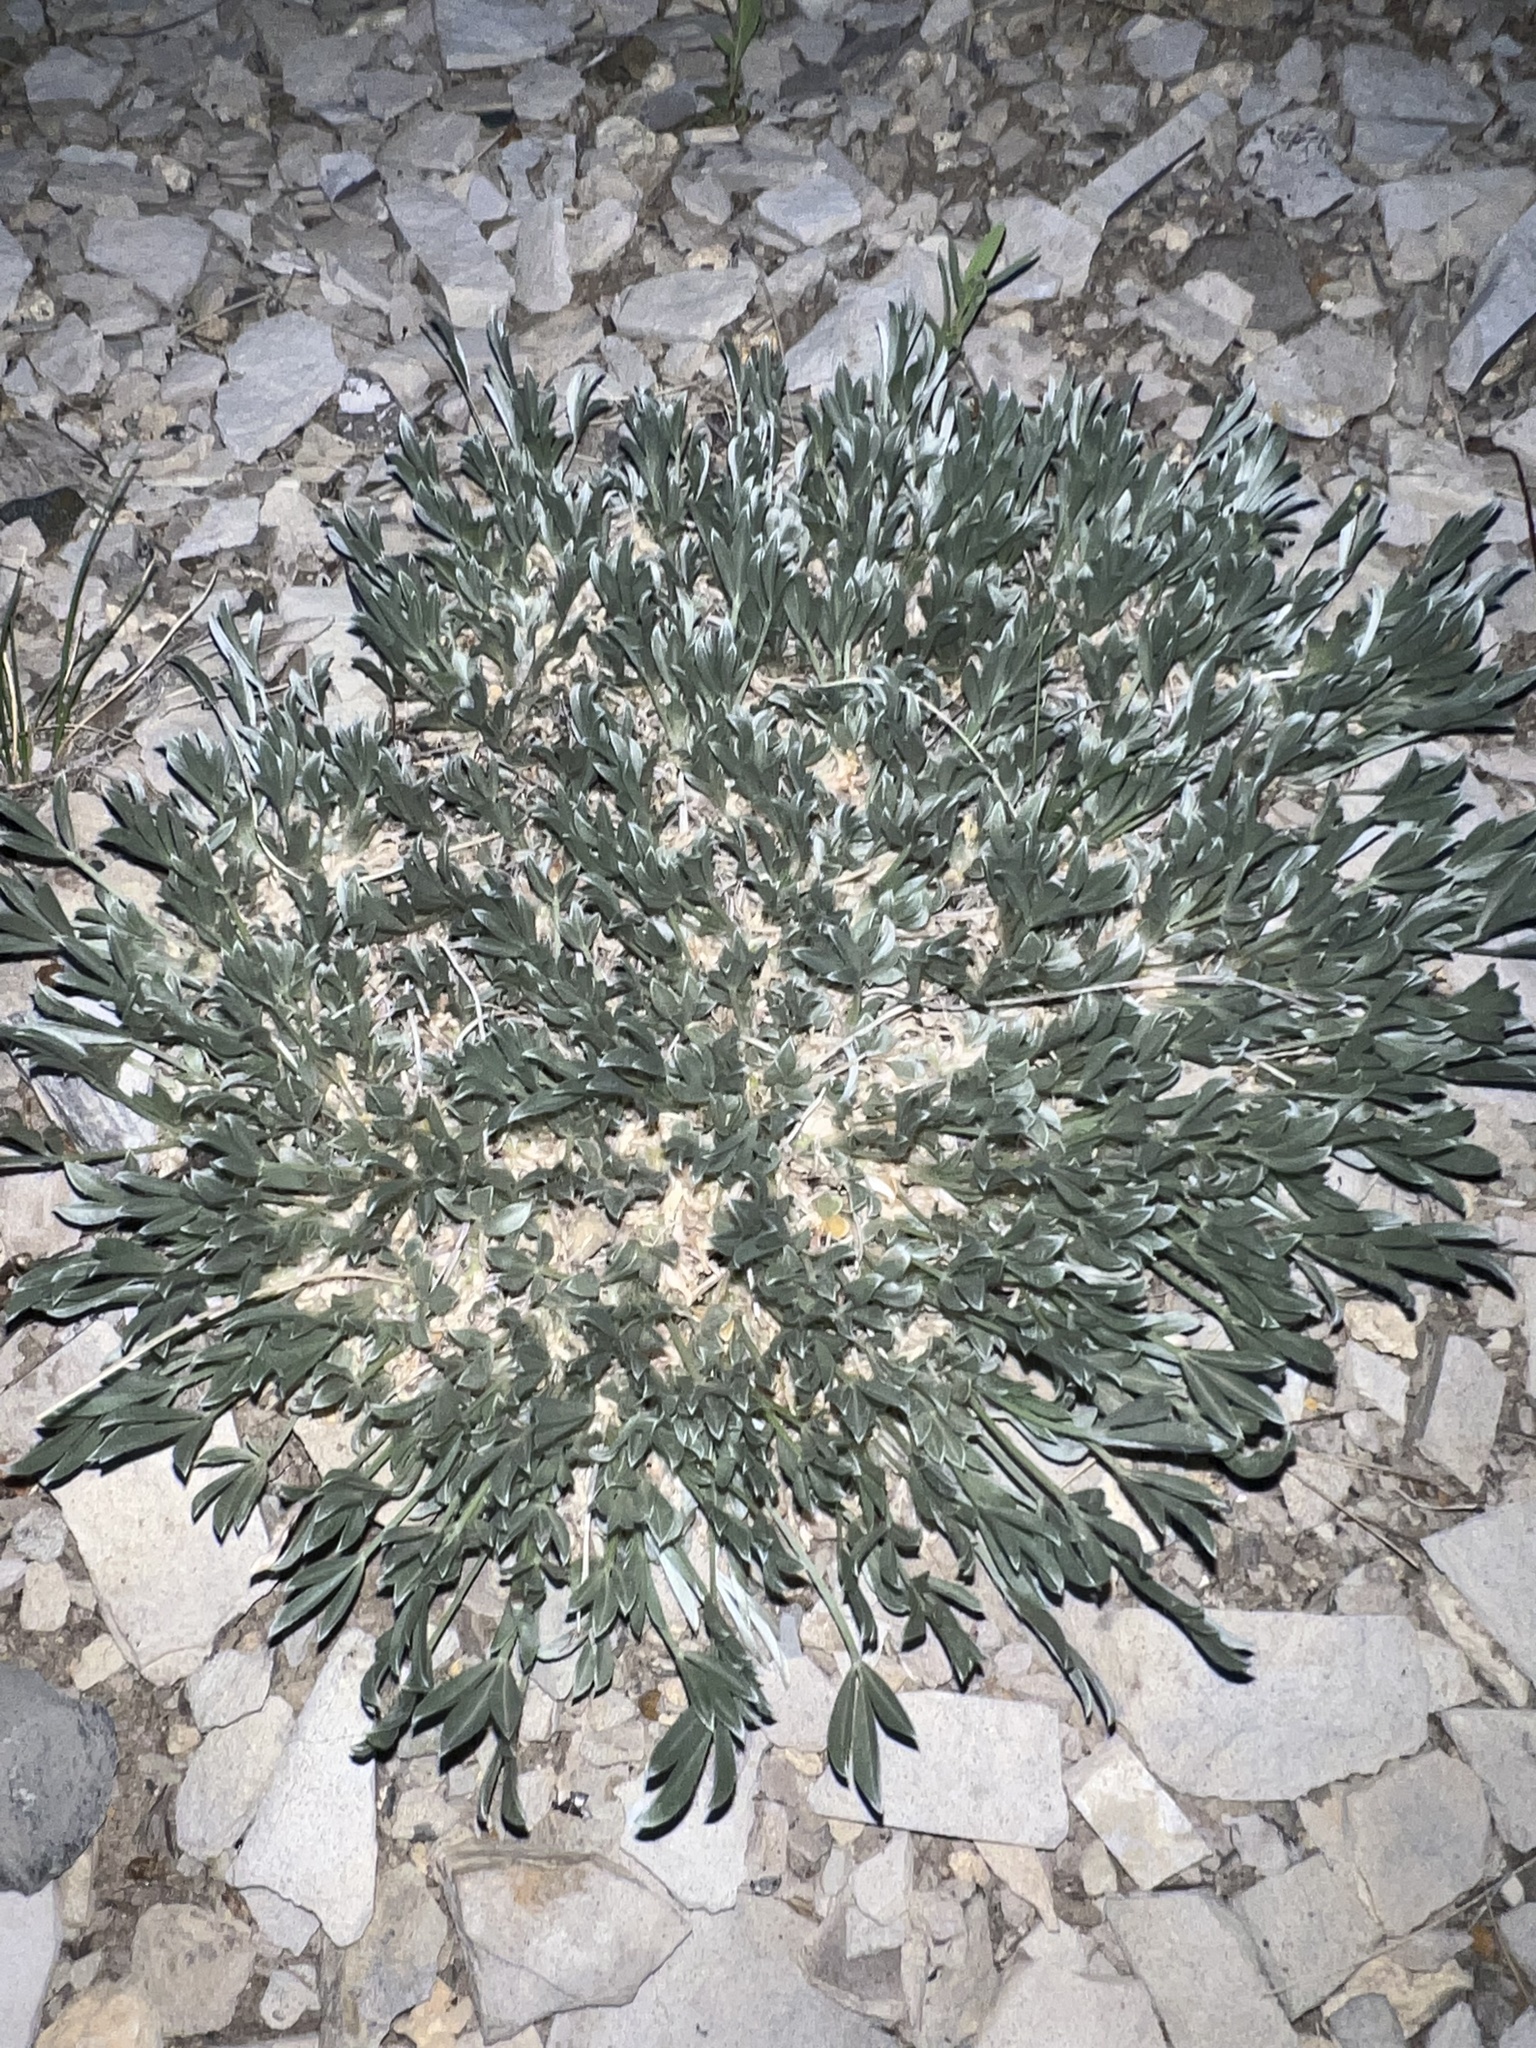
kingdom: Plantae
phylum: Tracheophyta
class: Magnoliopsida
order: Fabales
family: Fabaceae
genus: Astragalus
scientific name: Astragalus tridactylicus
